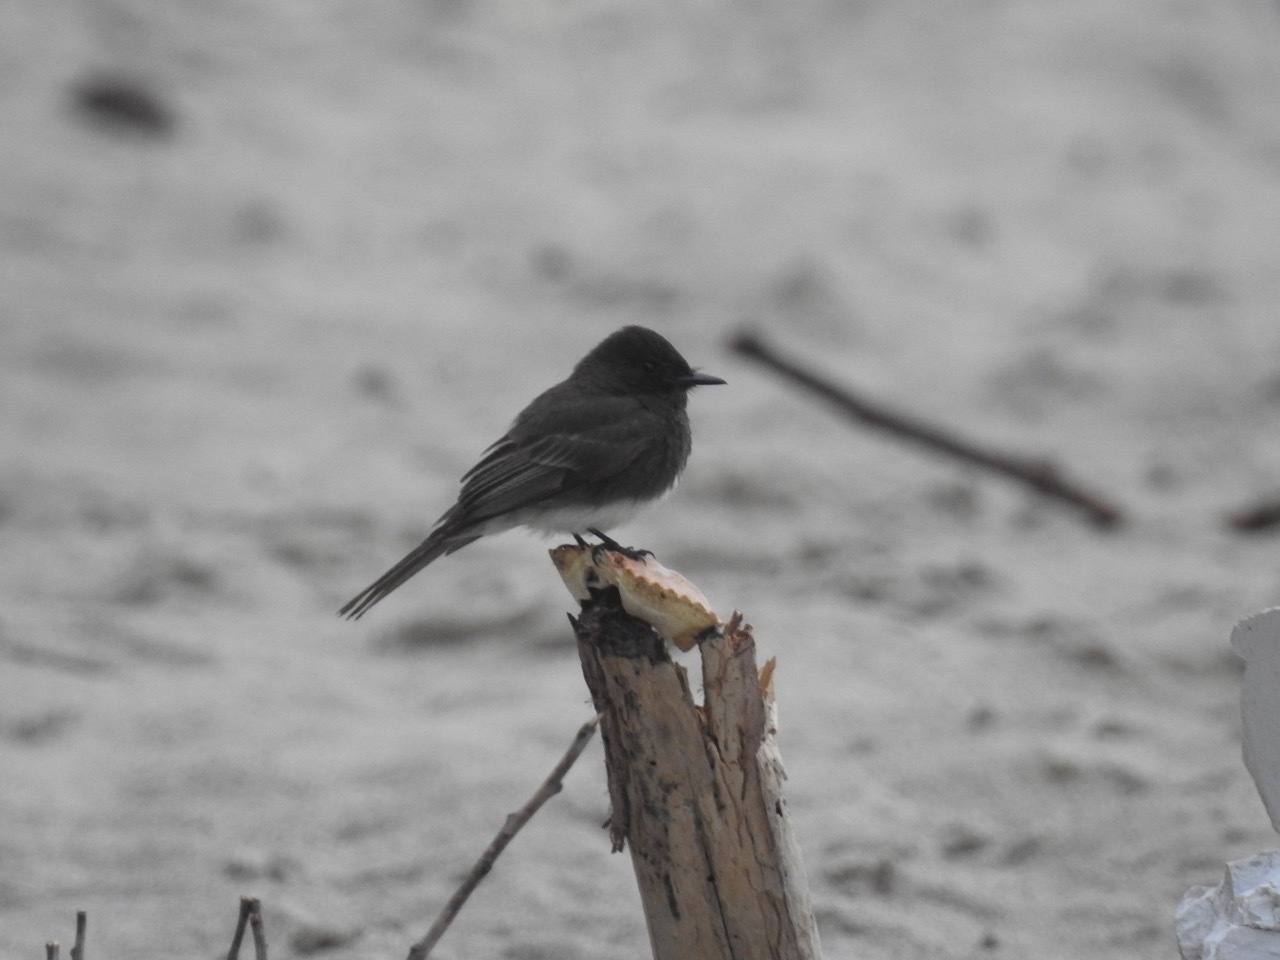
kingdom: Animalia
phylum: Chordata
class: Aves
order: Passeriformes
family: Tyrannidae
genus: Sayornis
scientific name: Sayornis nigricans
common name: Black phoebe
